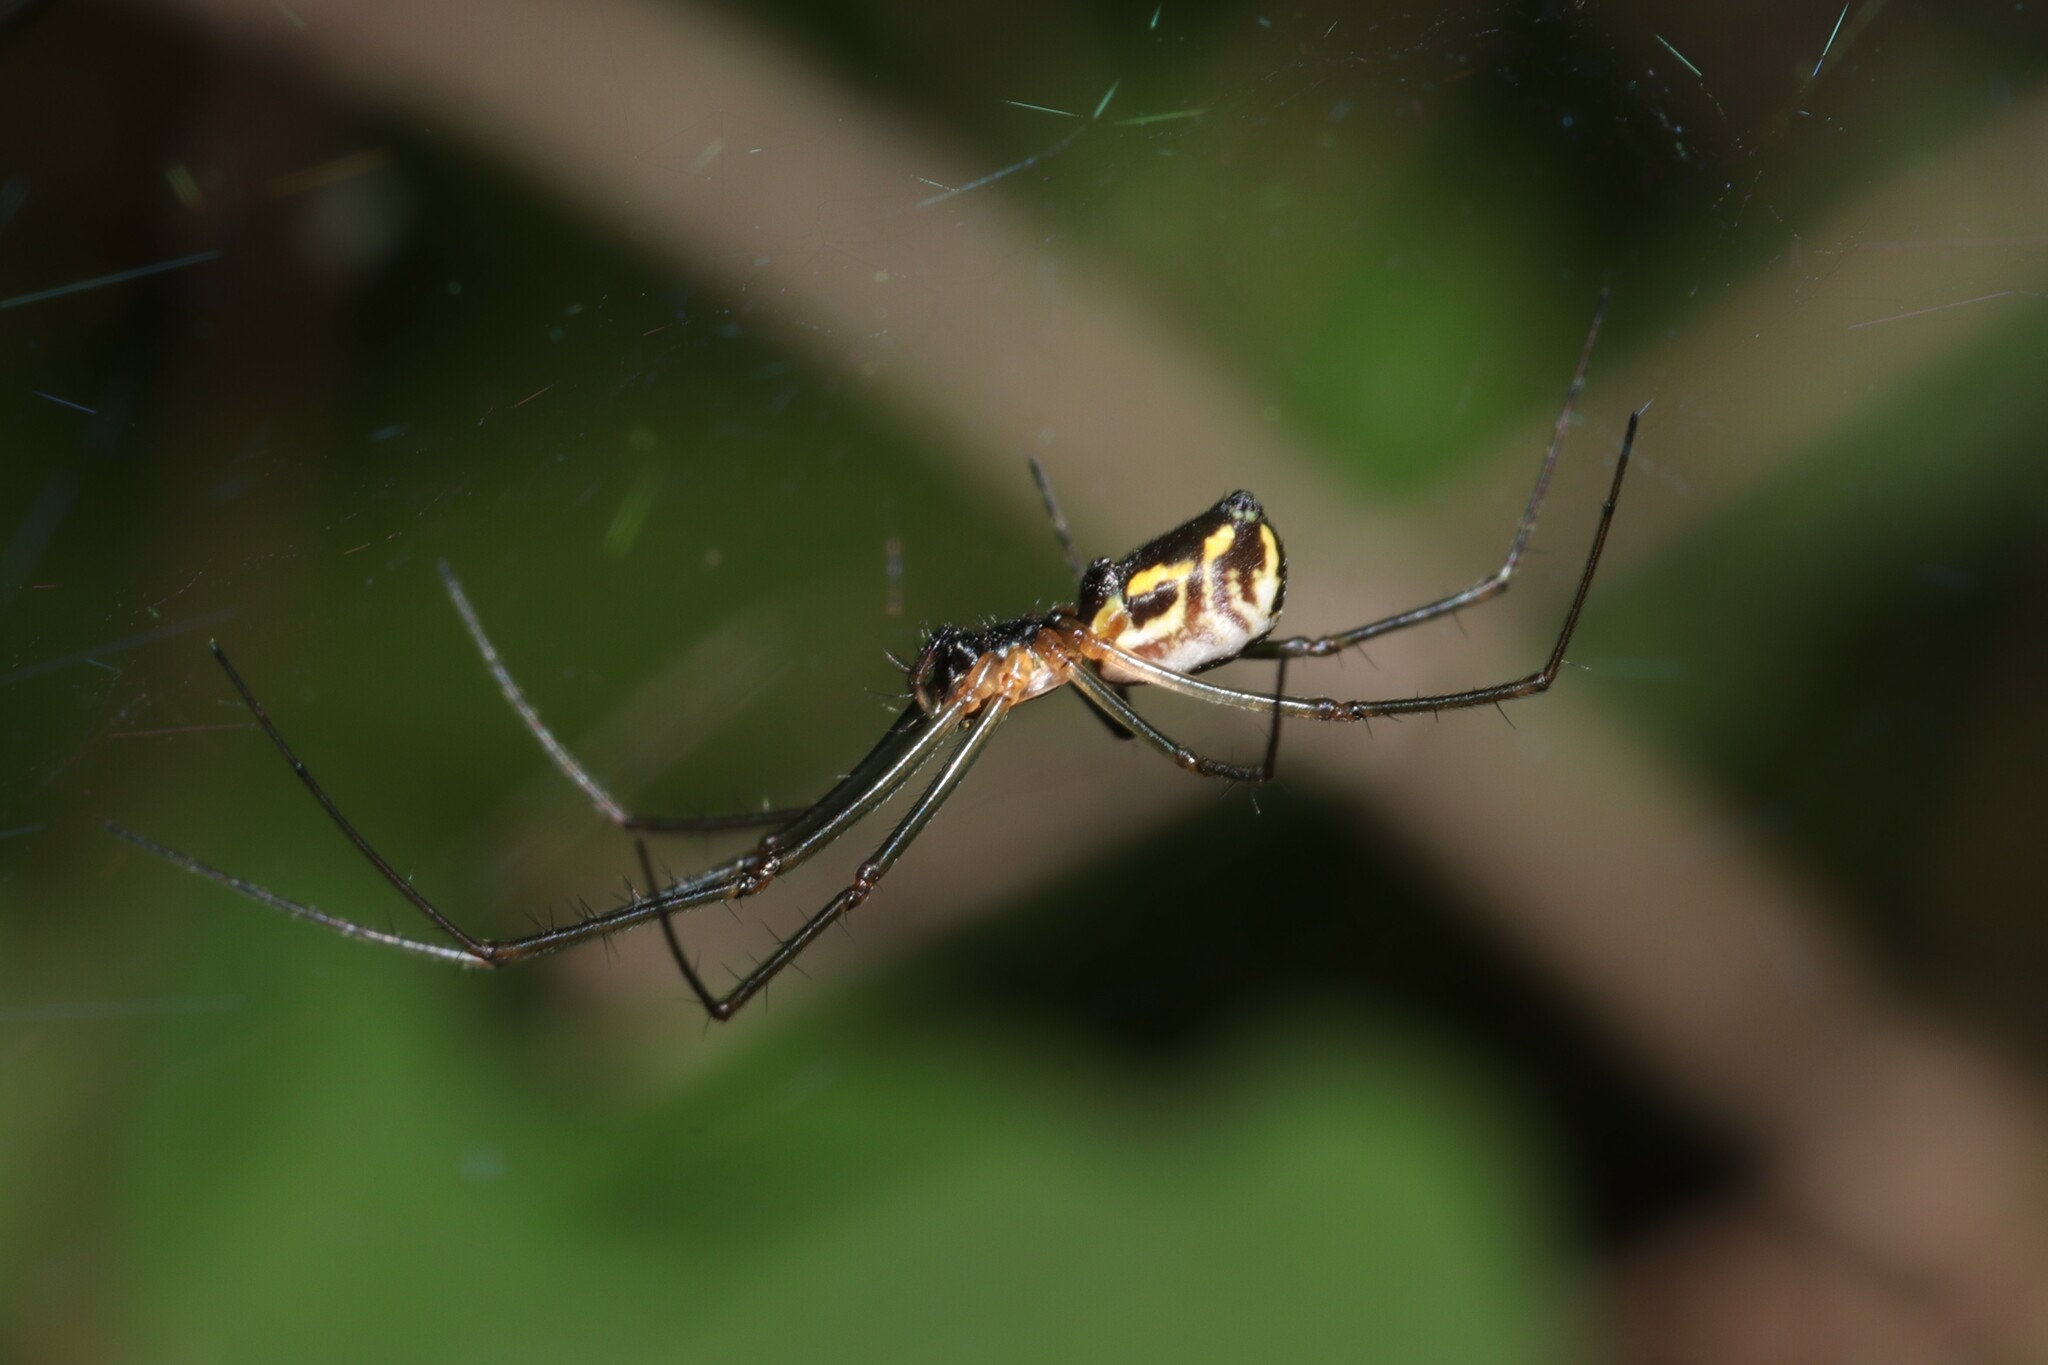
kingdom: Animalia
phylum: Arthropoda
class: Arachnida
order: Araneae
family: Linyphiidae
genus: Neriene
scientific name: Neriene radiata
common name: Filmy dome spider
